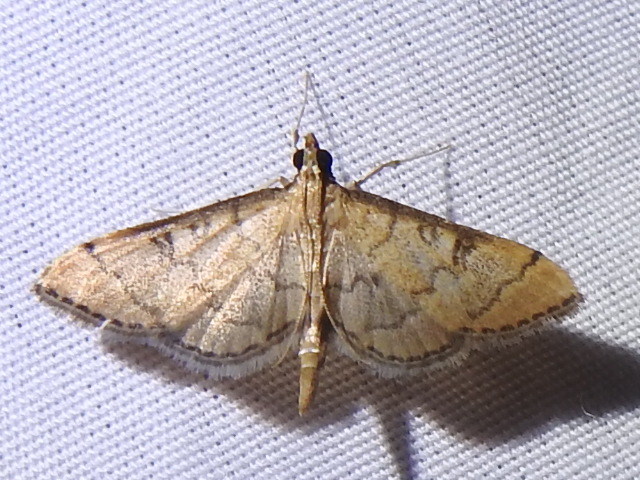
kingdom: Animalia
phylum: Arthropoda
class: Insecta
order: Lepidoptera
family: Crambidae
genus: Lamprosema
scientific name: Lamprosema Blepharomastix ranalis
